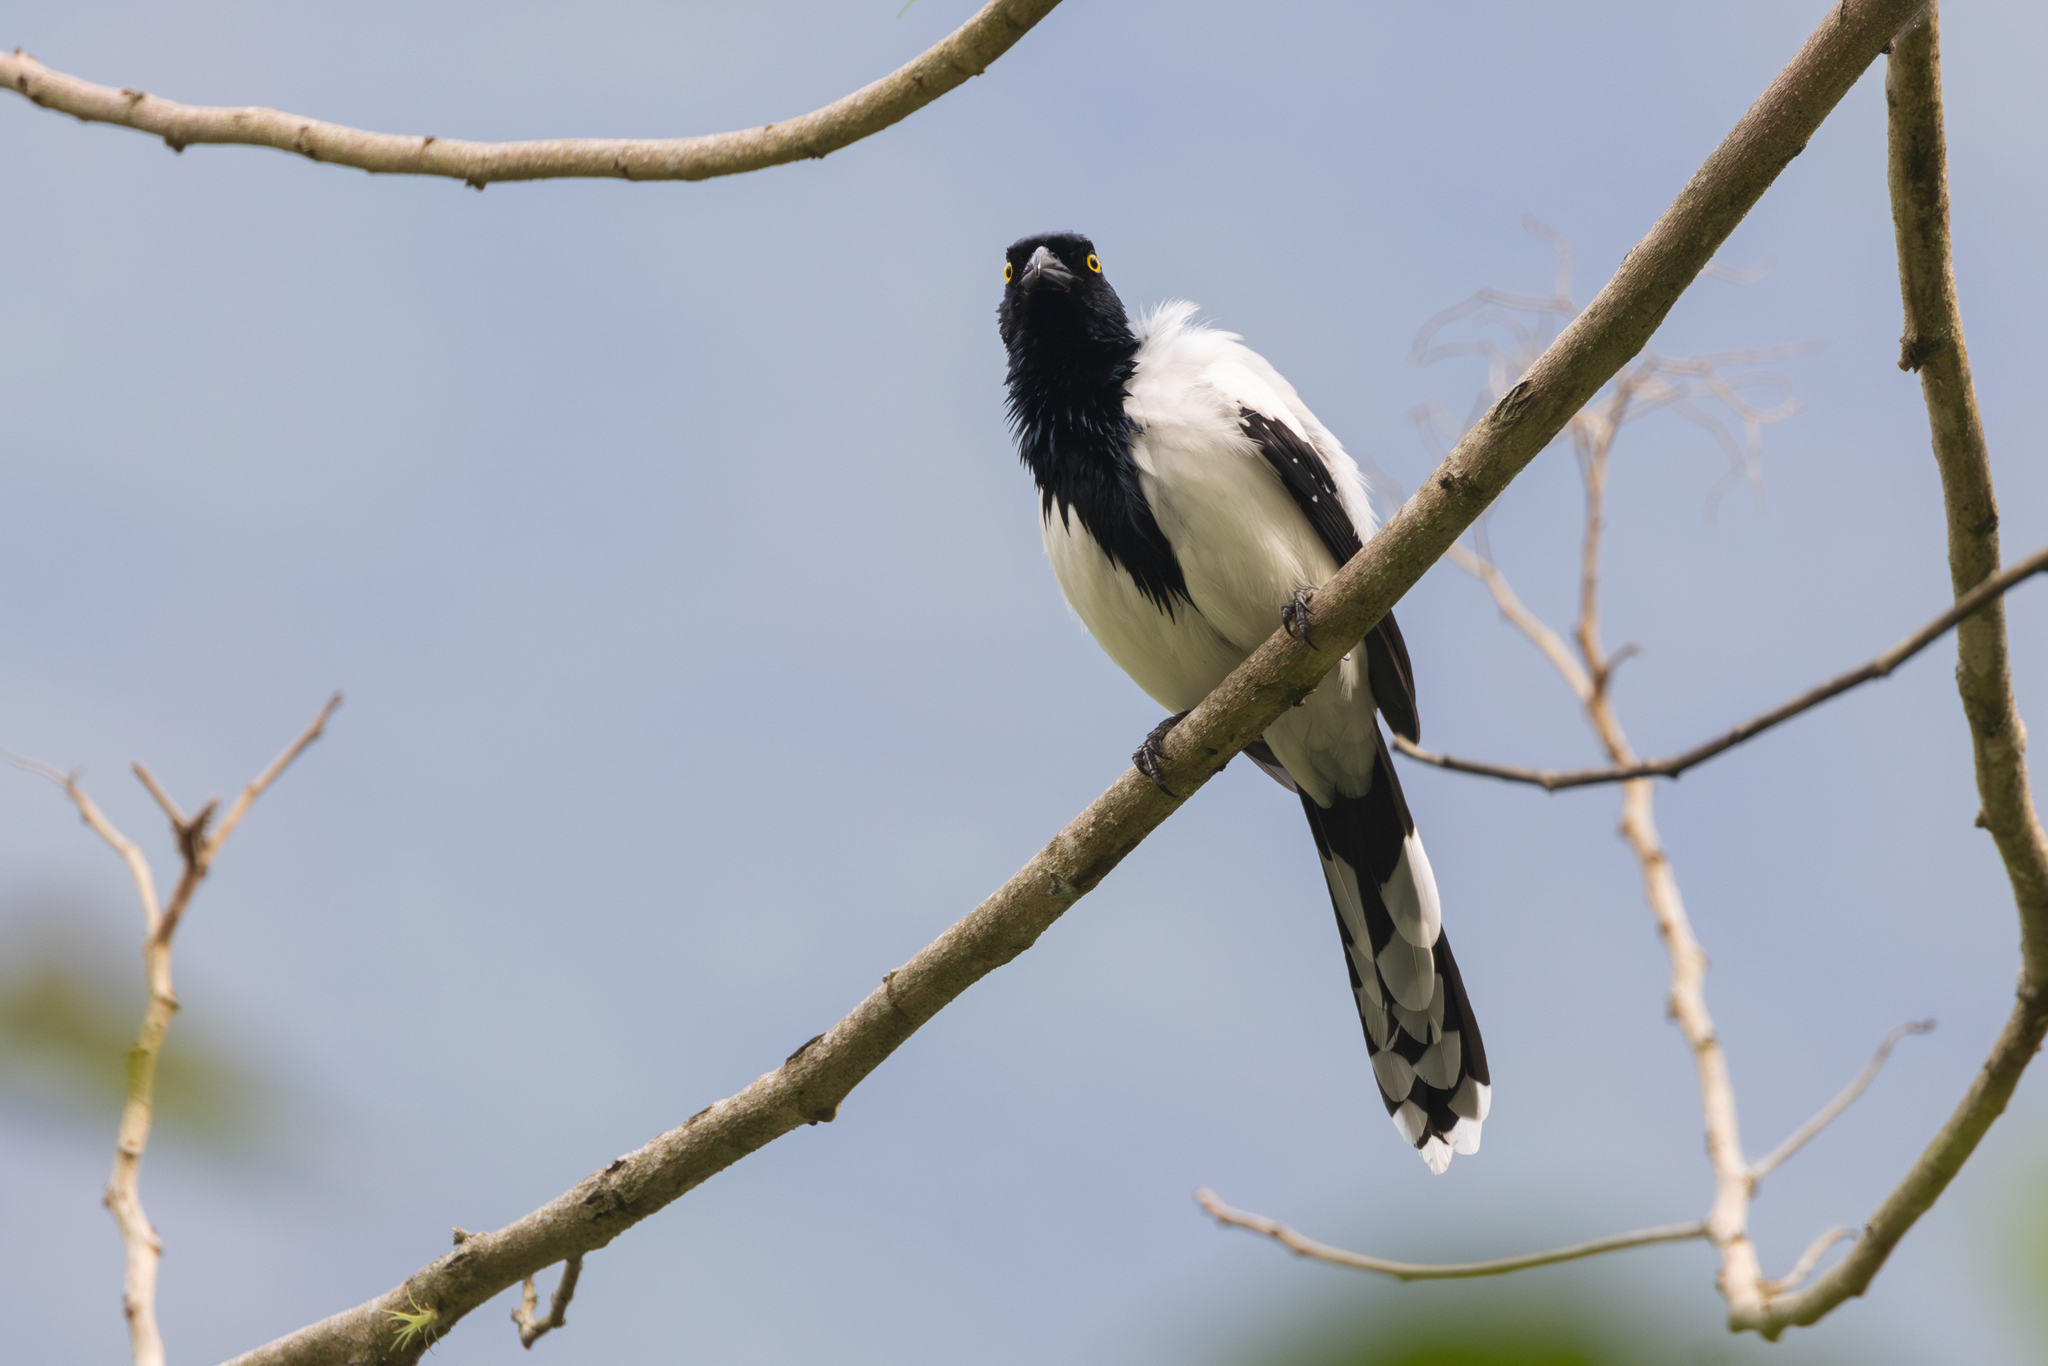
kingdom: Animalia
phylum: Chordata
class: Aves
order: Passeriformes
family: Thraupidae
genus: Cissopis
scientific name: Cissopis leverianus
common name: Magpie tanager
